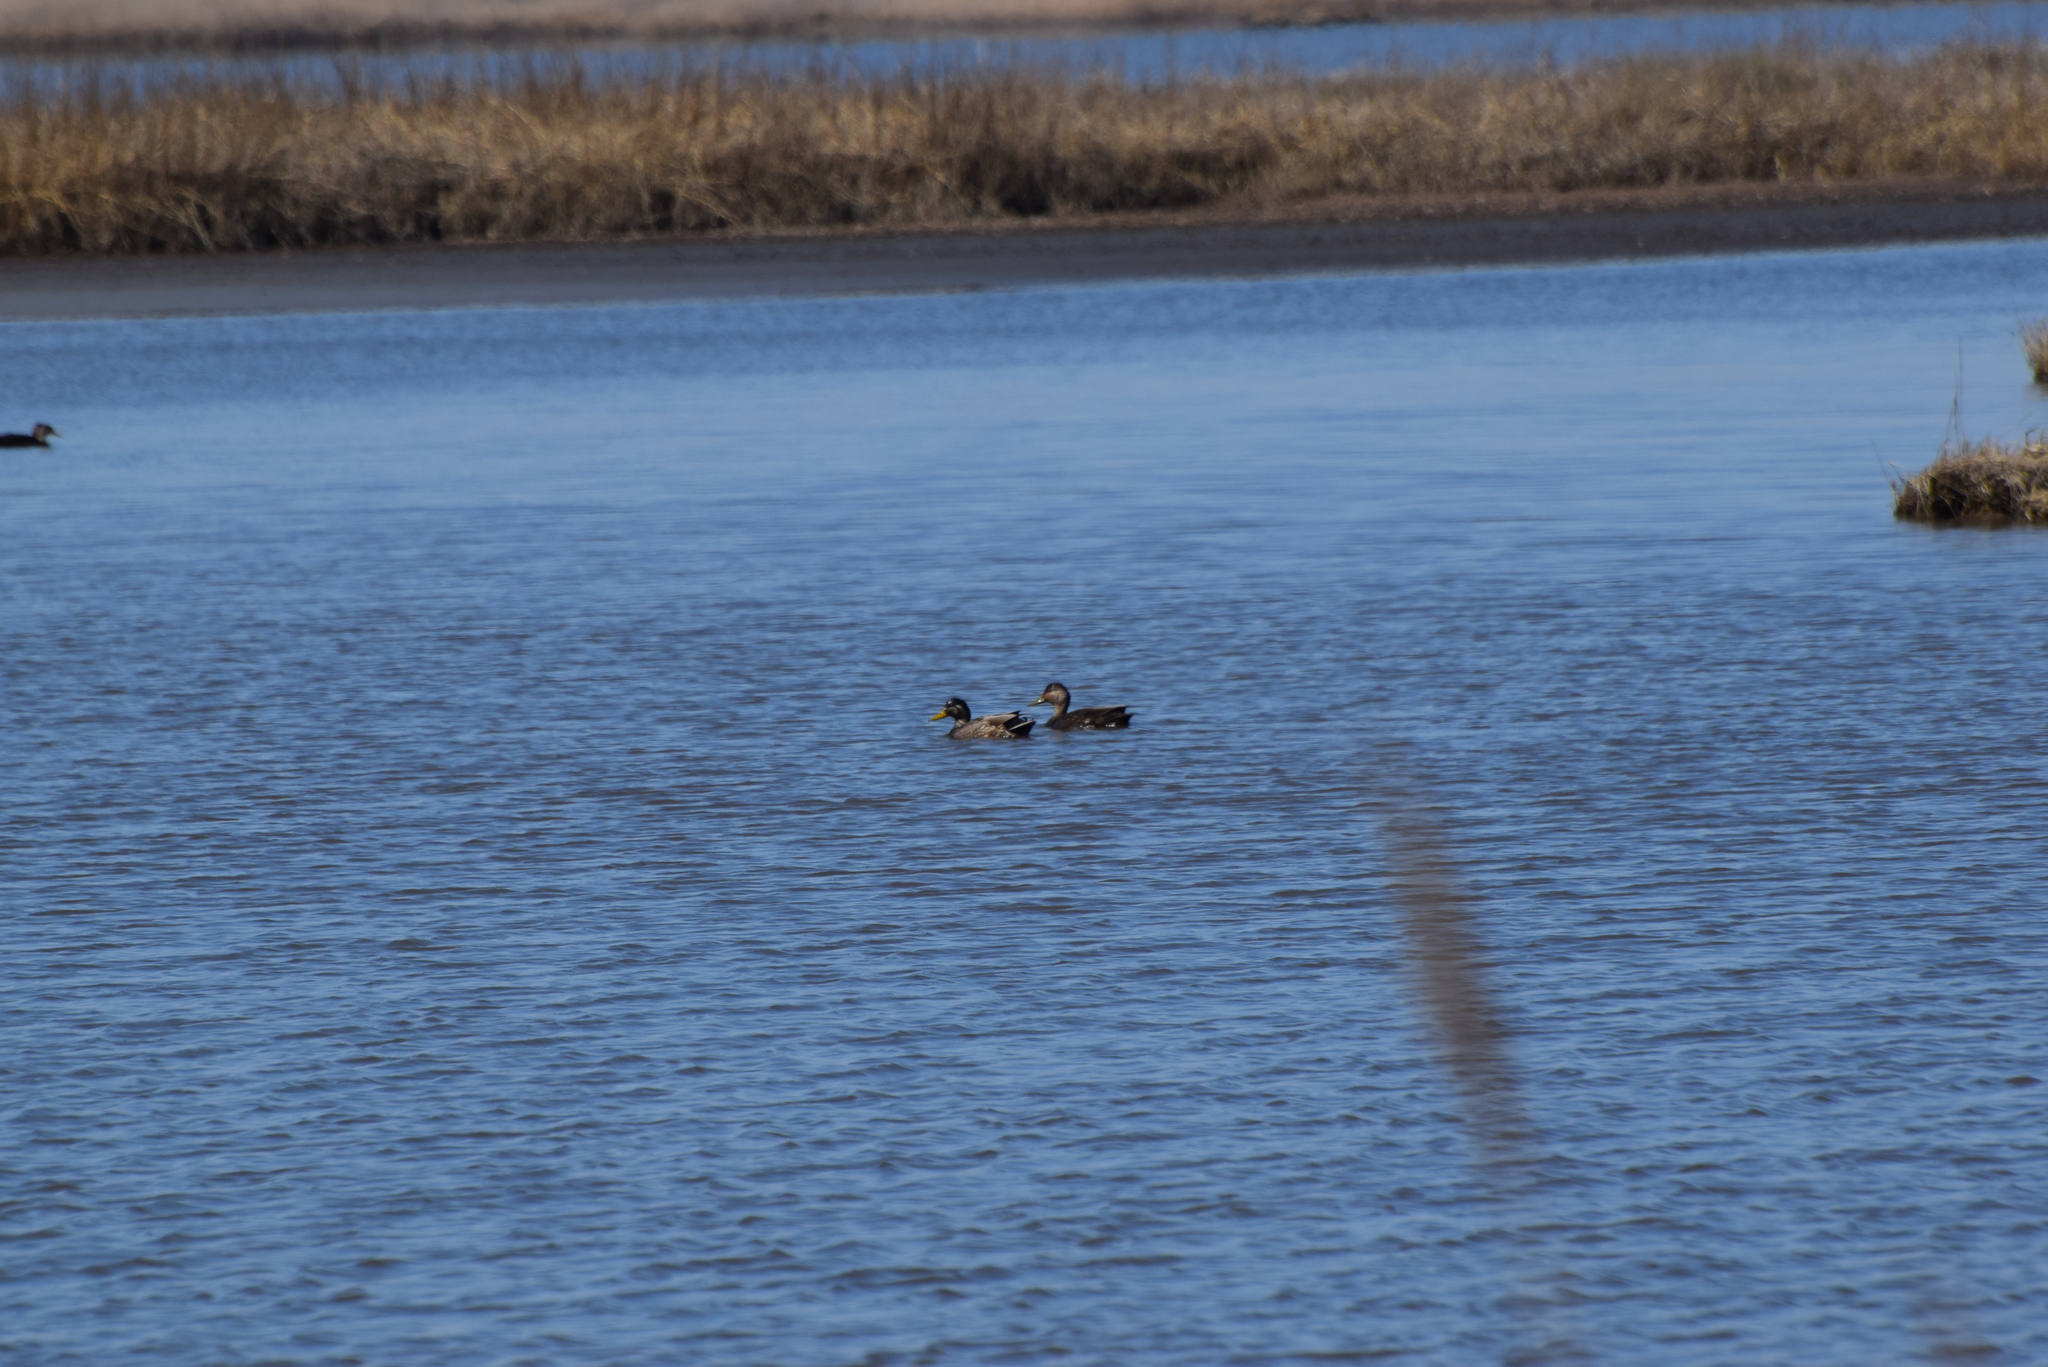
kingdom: Animalia
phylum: Chordata
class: Aves
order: Anseriformes
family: Anatidae
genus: Anas
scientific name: Anas rubripes
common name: American black duck
